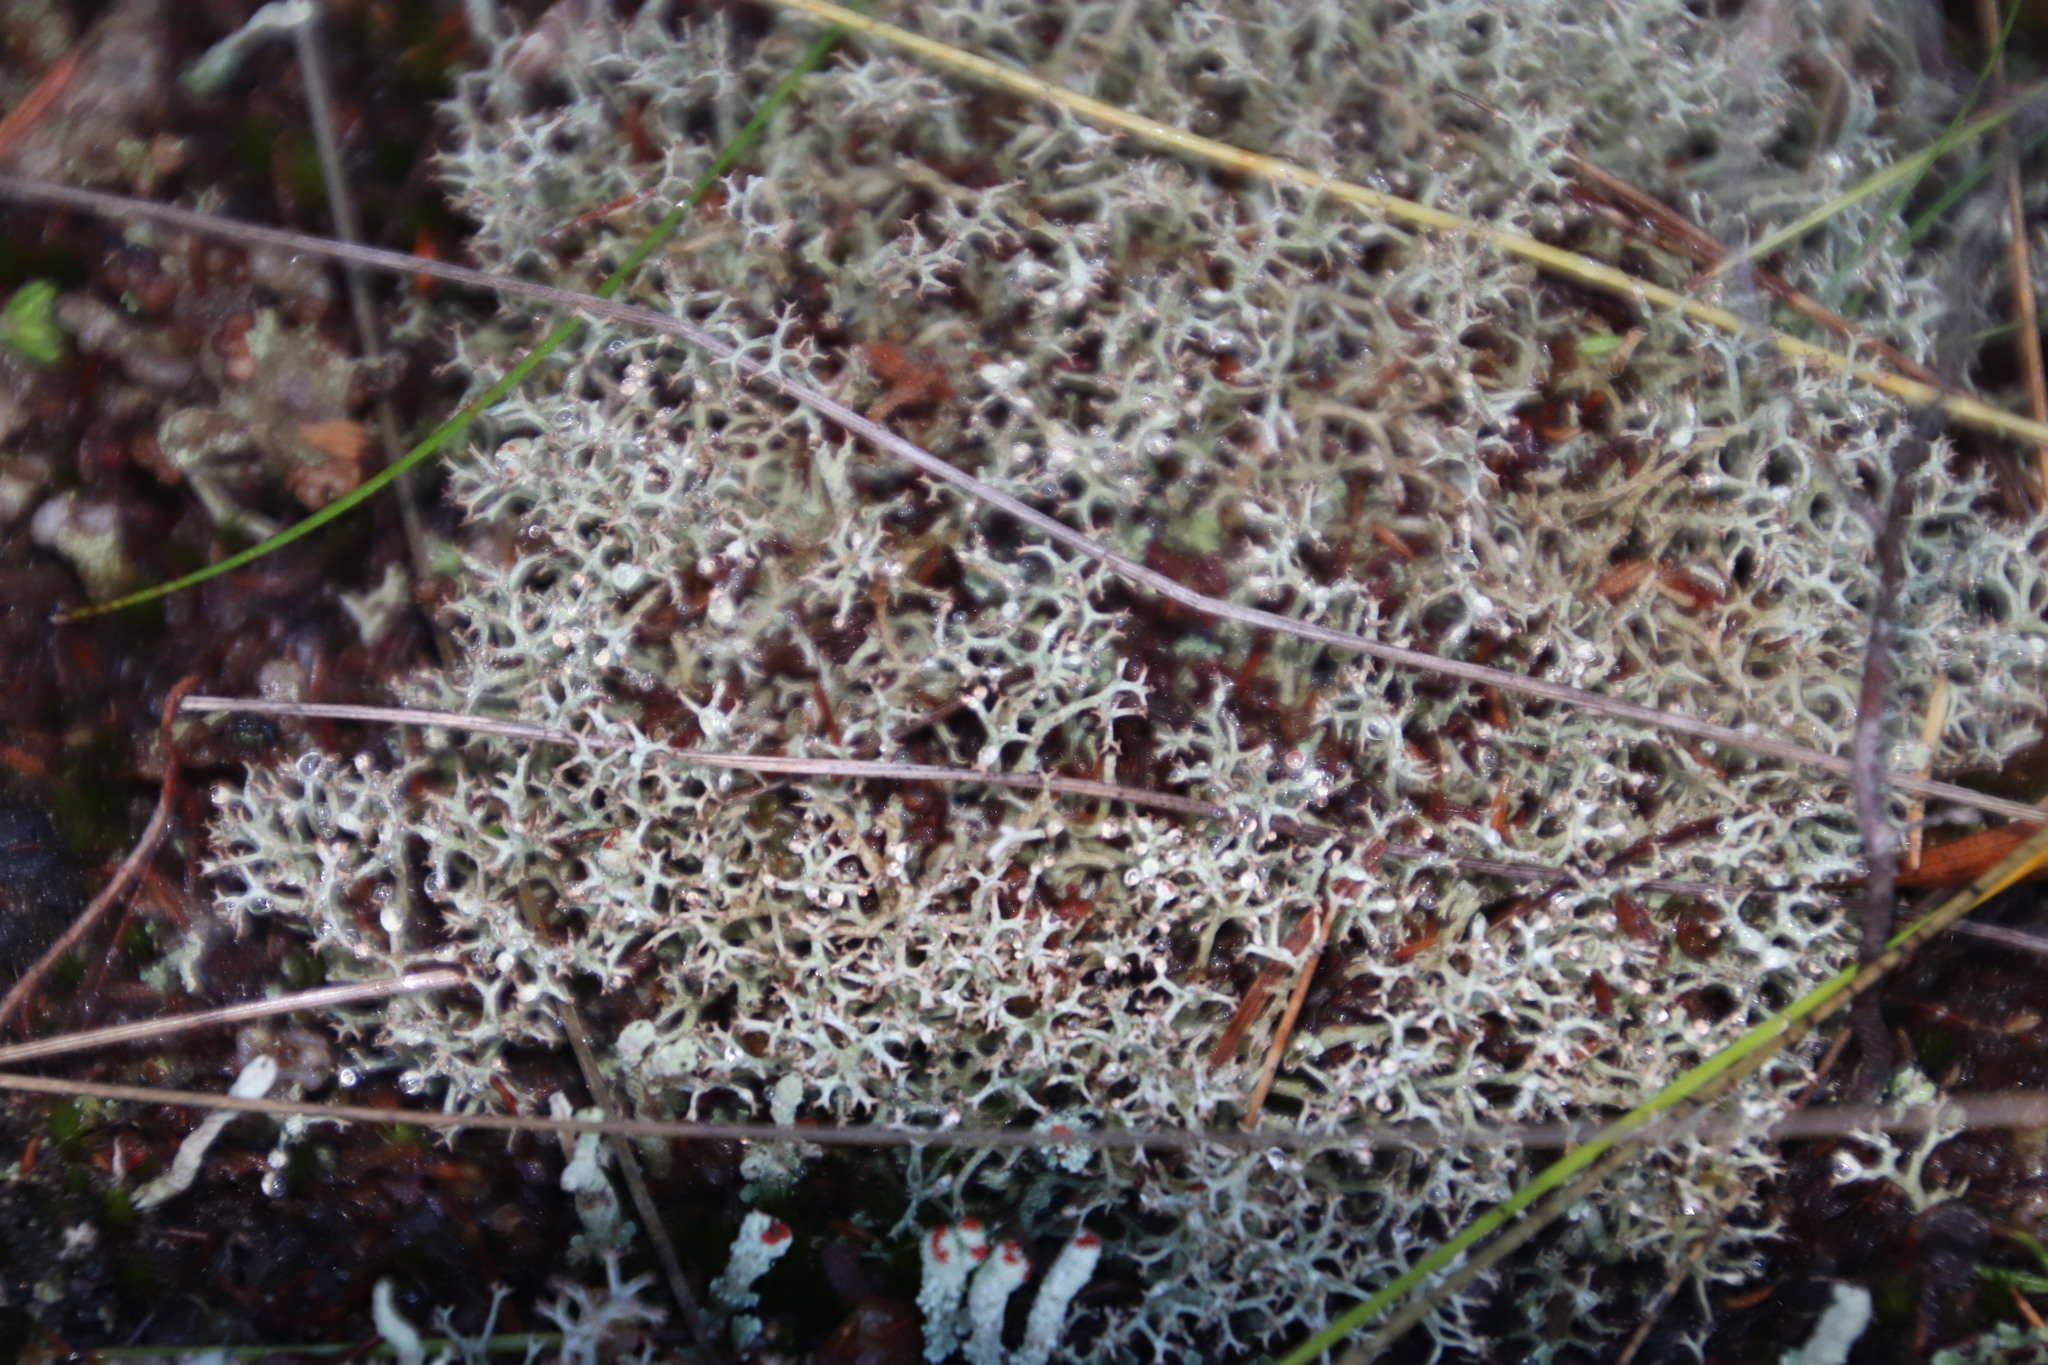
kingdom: Fungi
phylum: Ascomycota
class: Lecanoromycetes
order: Lecanorales
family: Cladoniaceae
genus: Cladonia
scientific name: Cladonia
